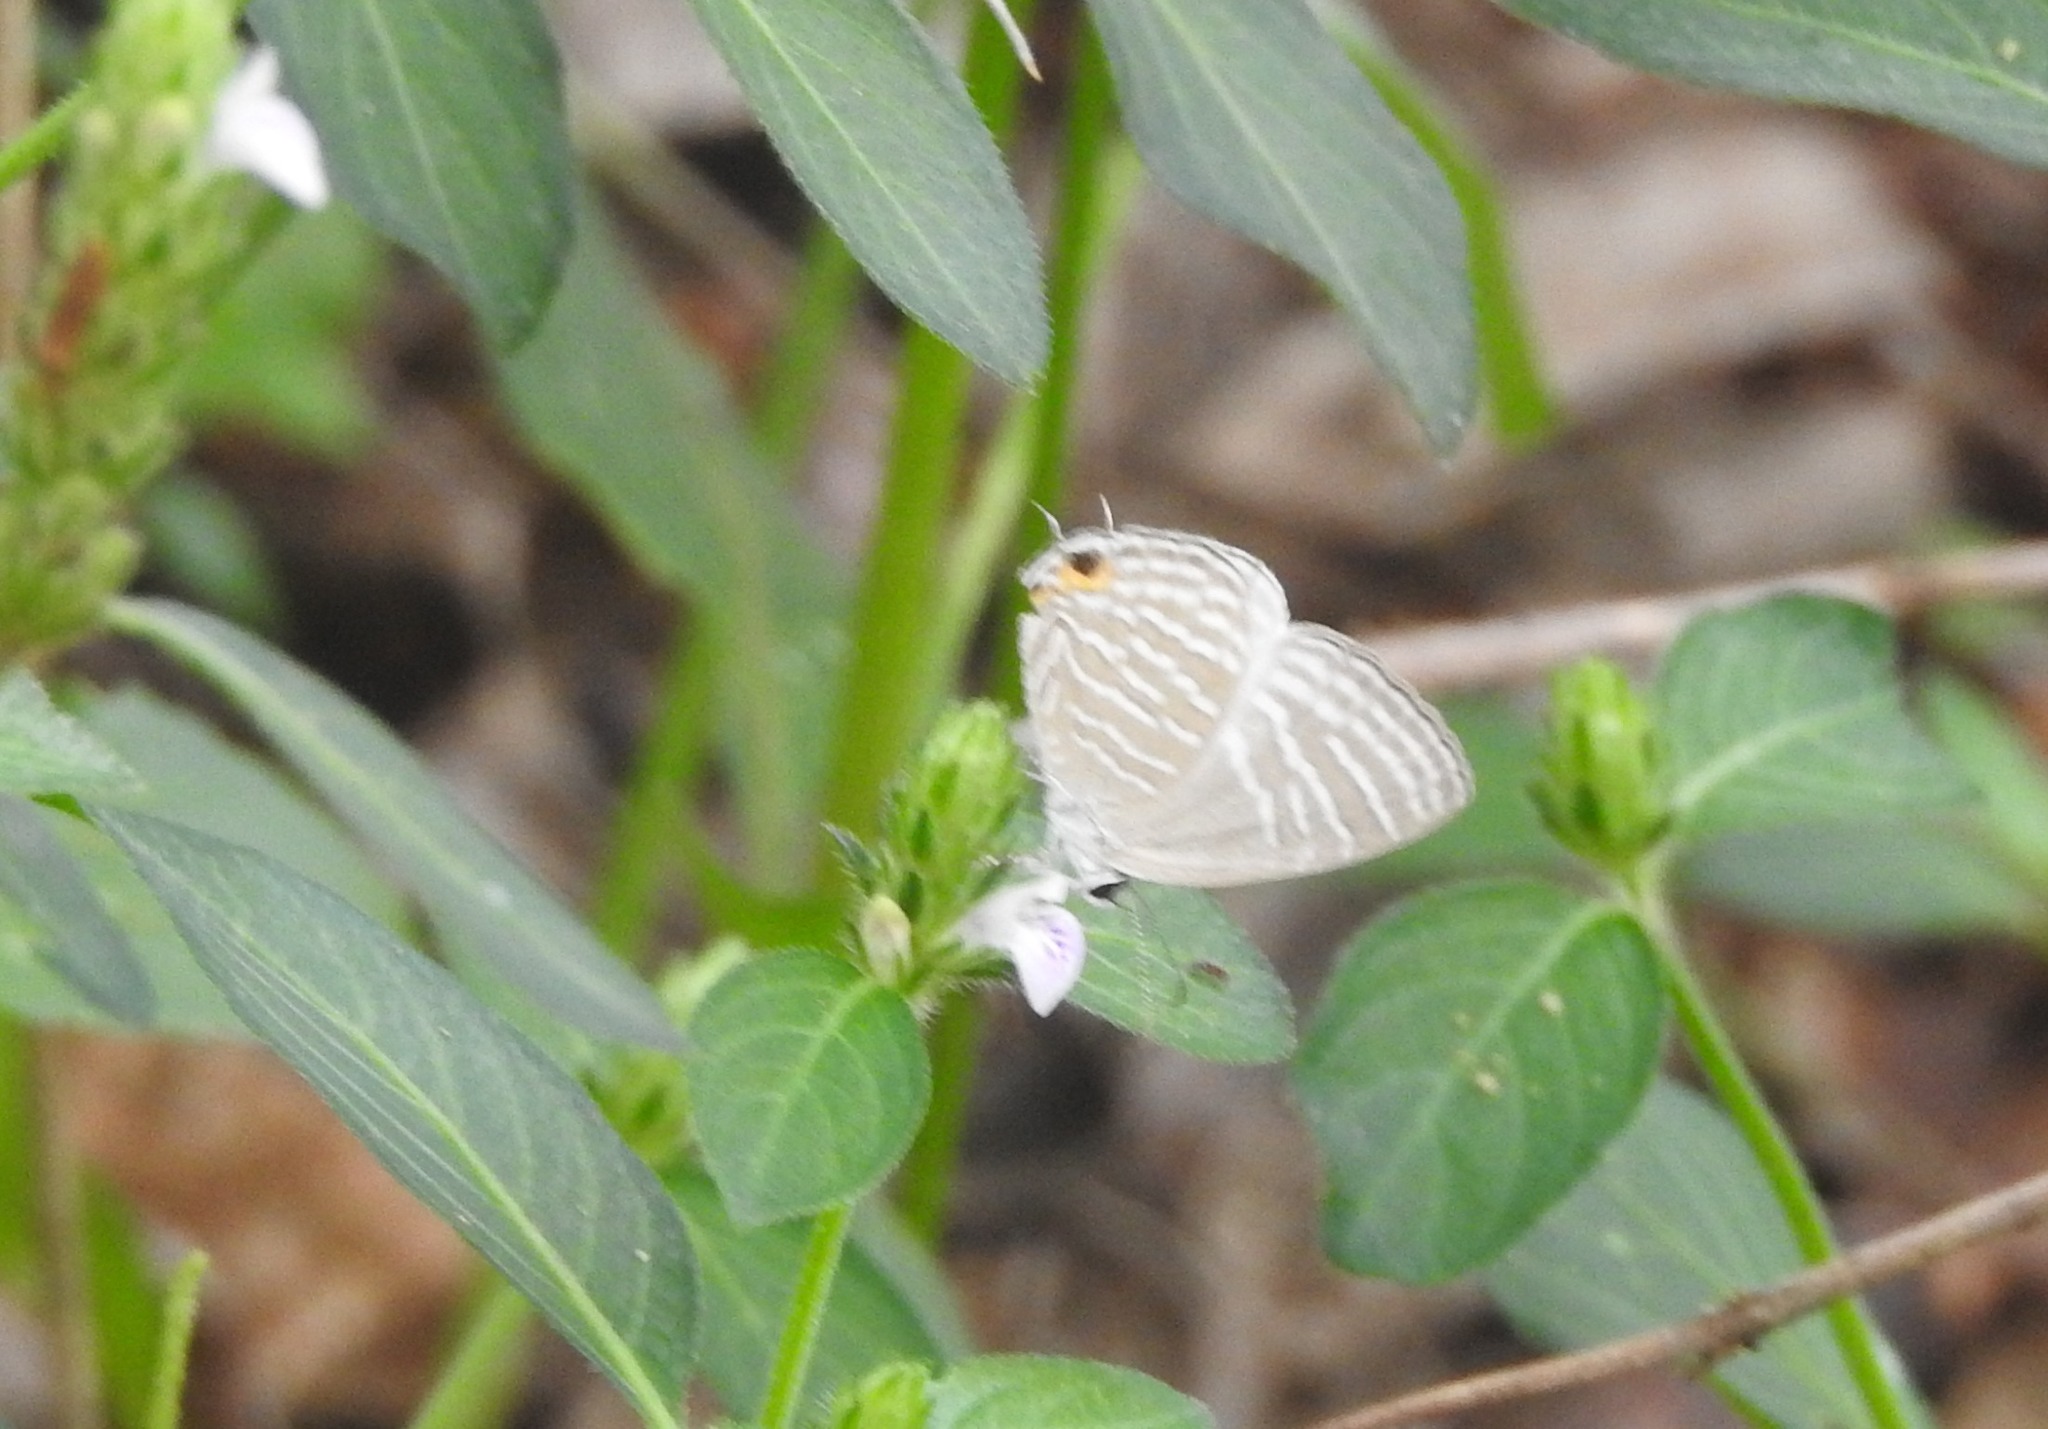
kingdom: Animalia
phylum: Arthropoda
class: Insecta
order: Lepidoptera
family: Lycaenidae
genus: Jamides
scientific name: Jamides celeno
